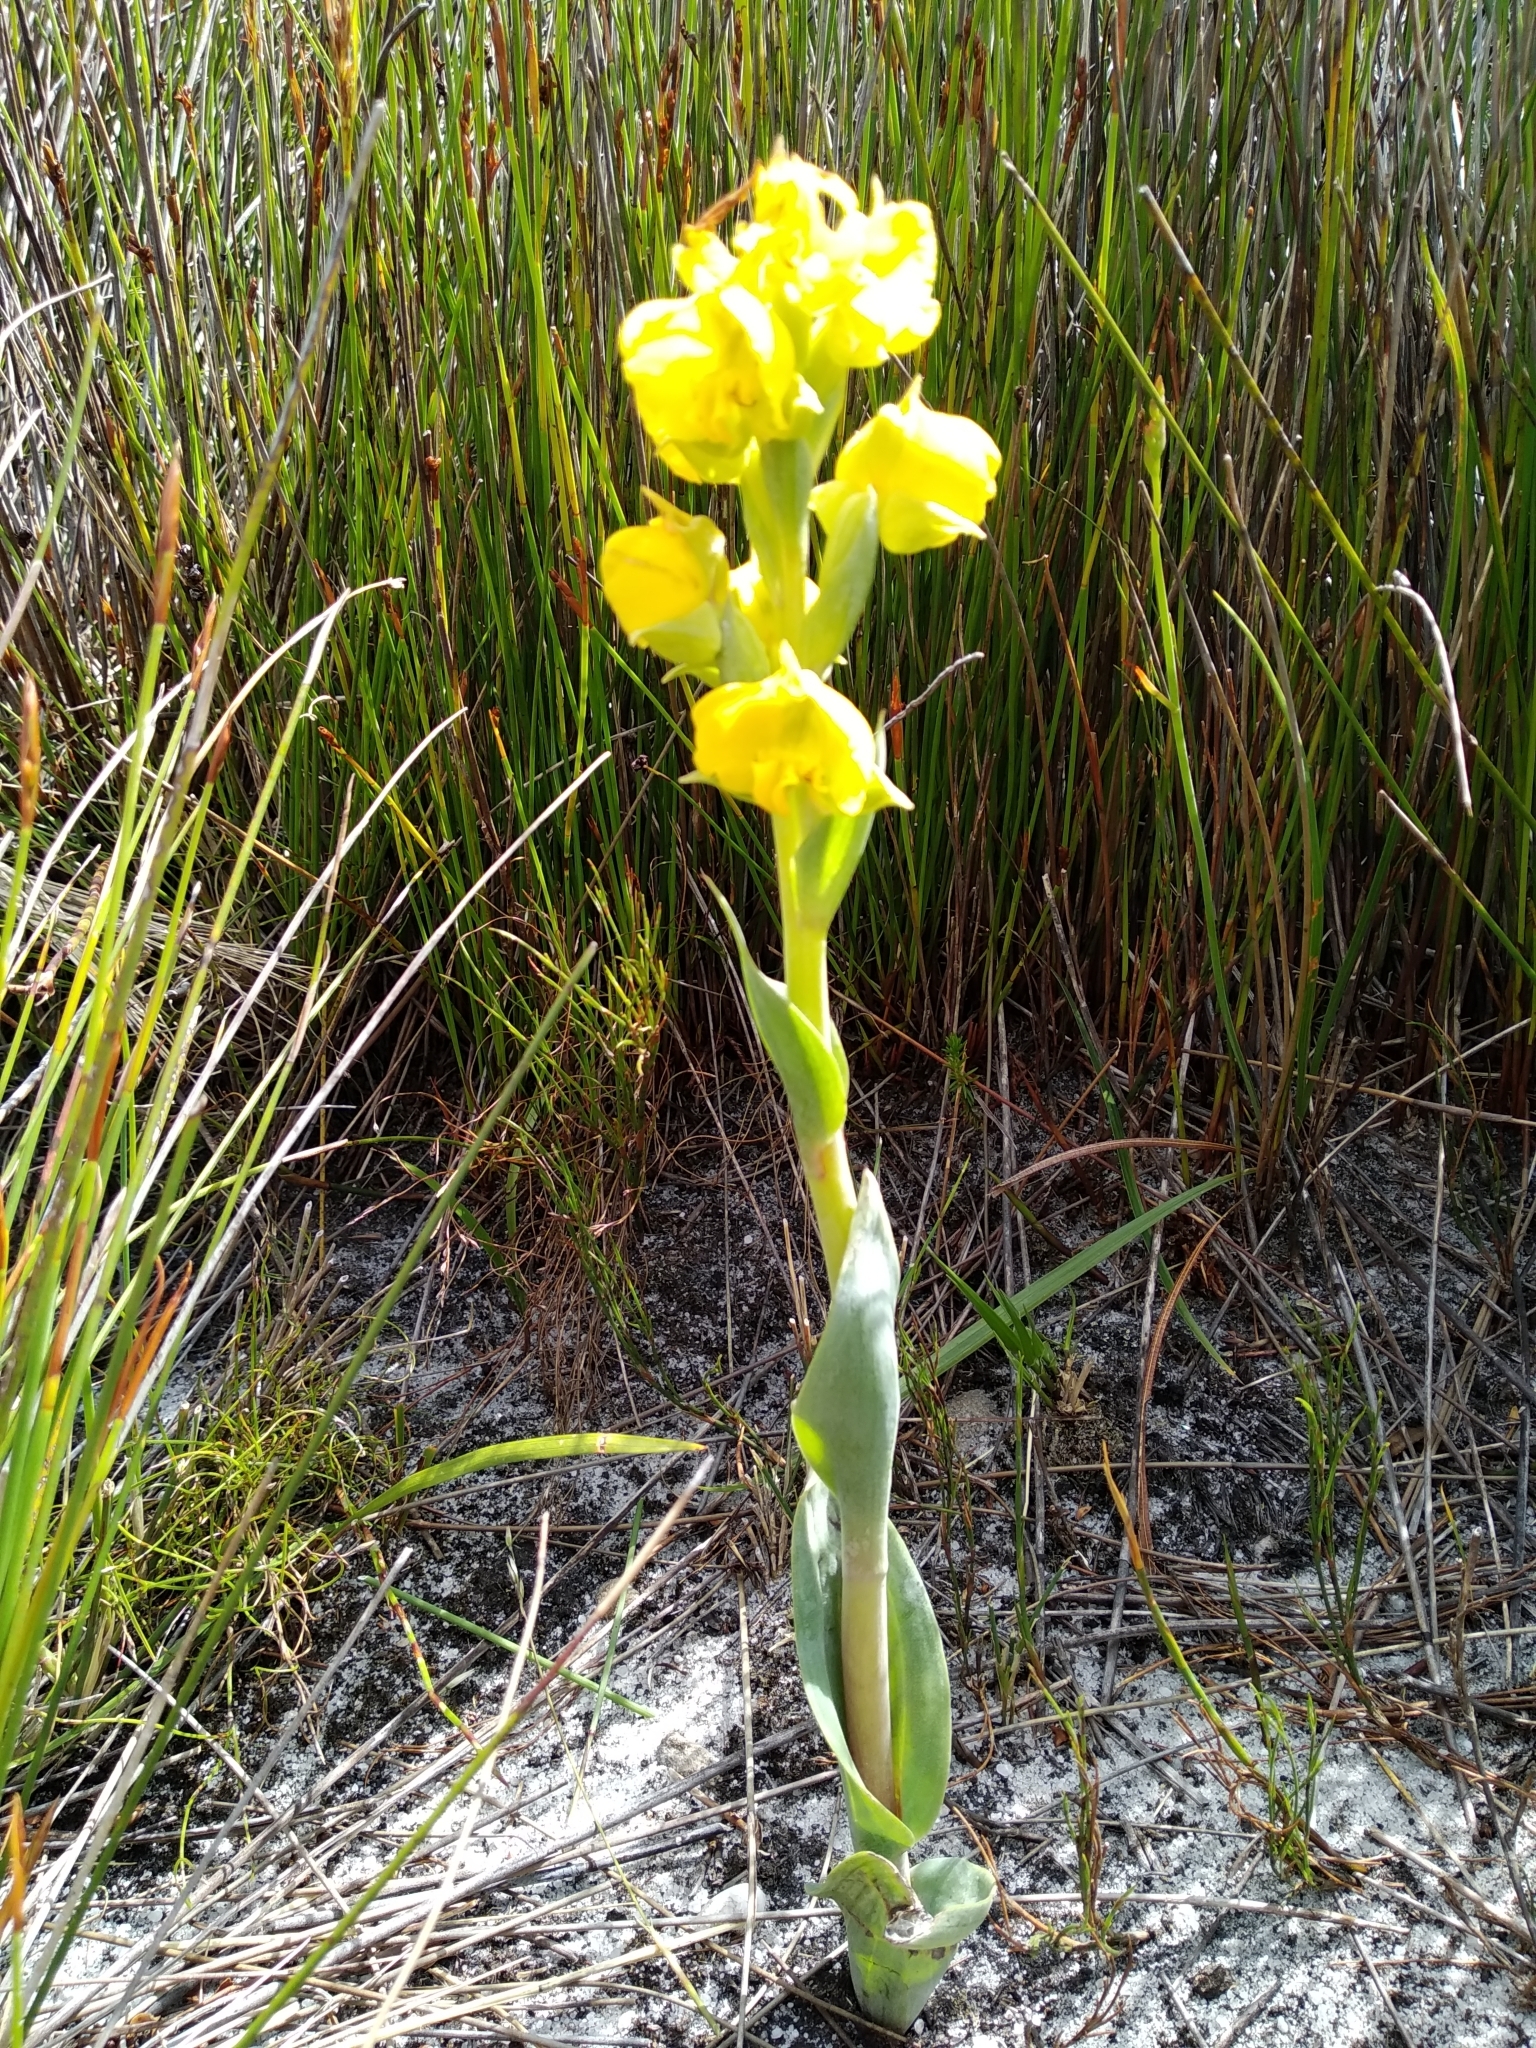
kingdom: Plantae
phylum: Tracheophyta
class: Liliopsida
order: Asparagales
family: Orchidaceae
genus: Pterygodium
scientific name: Pterygodium acutifolium
